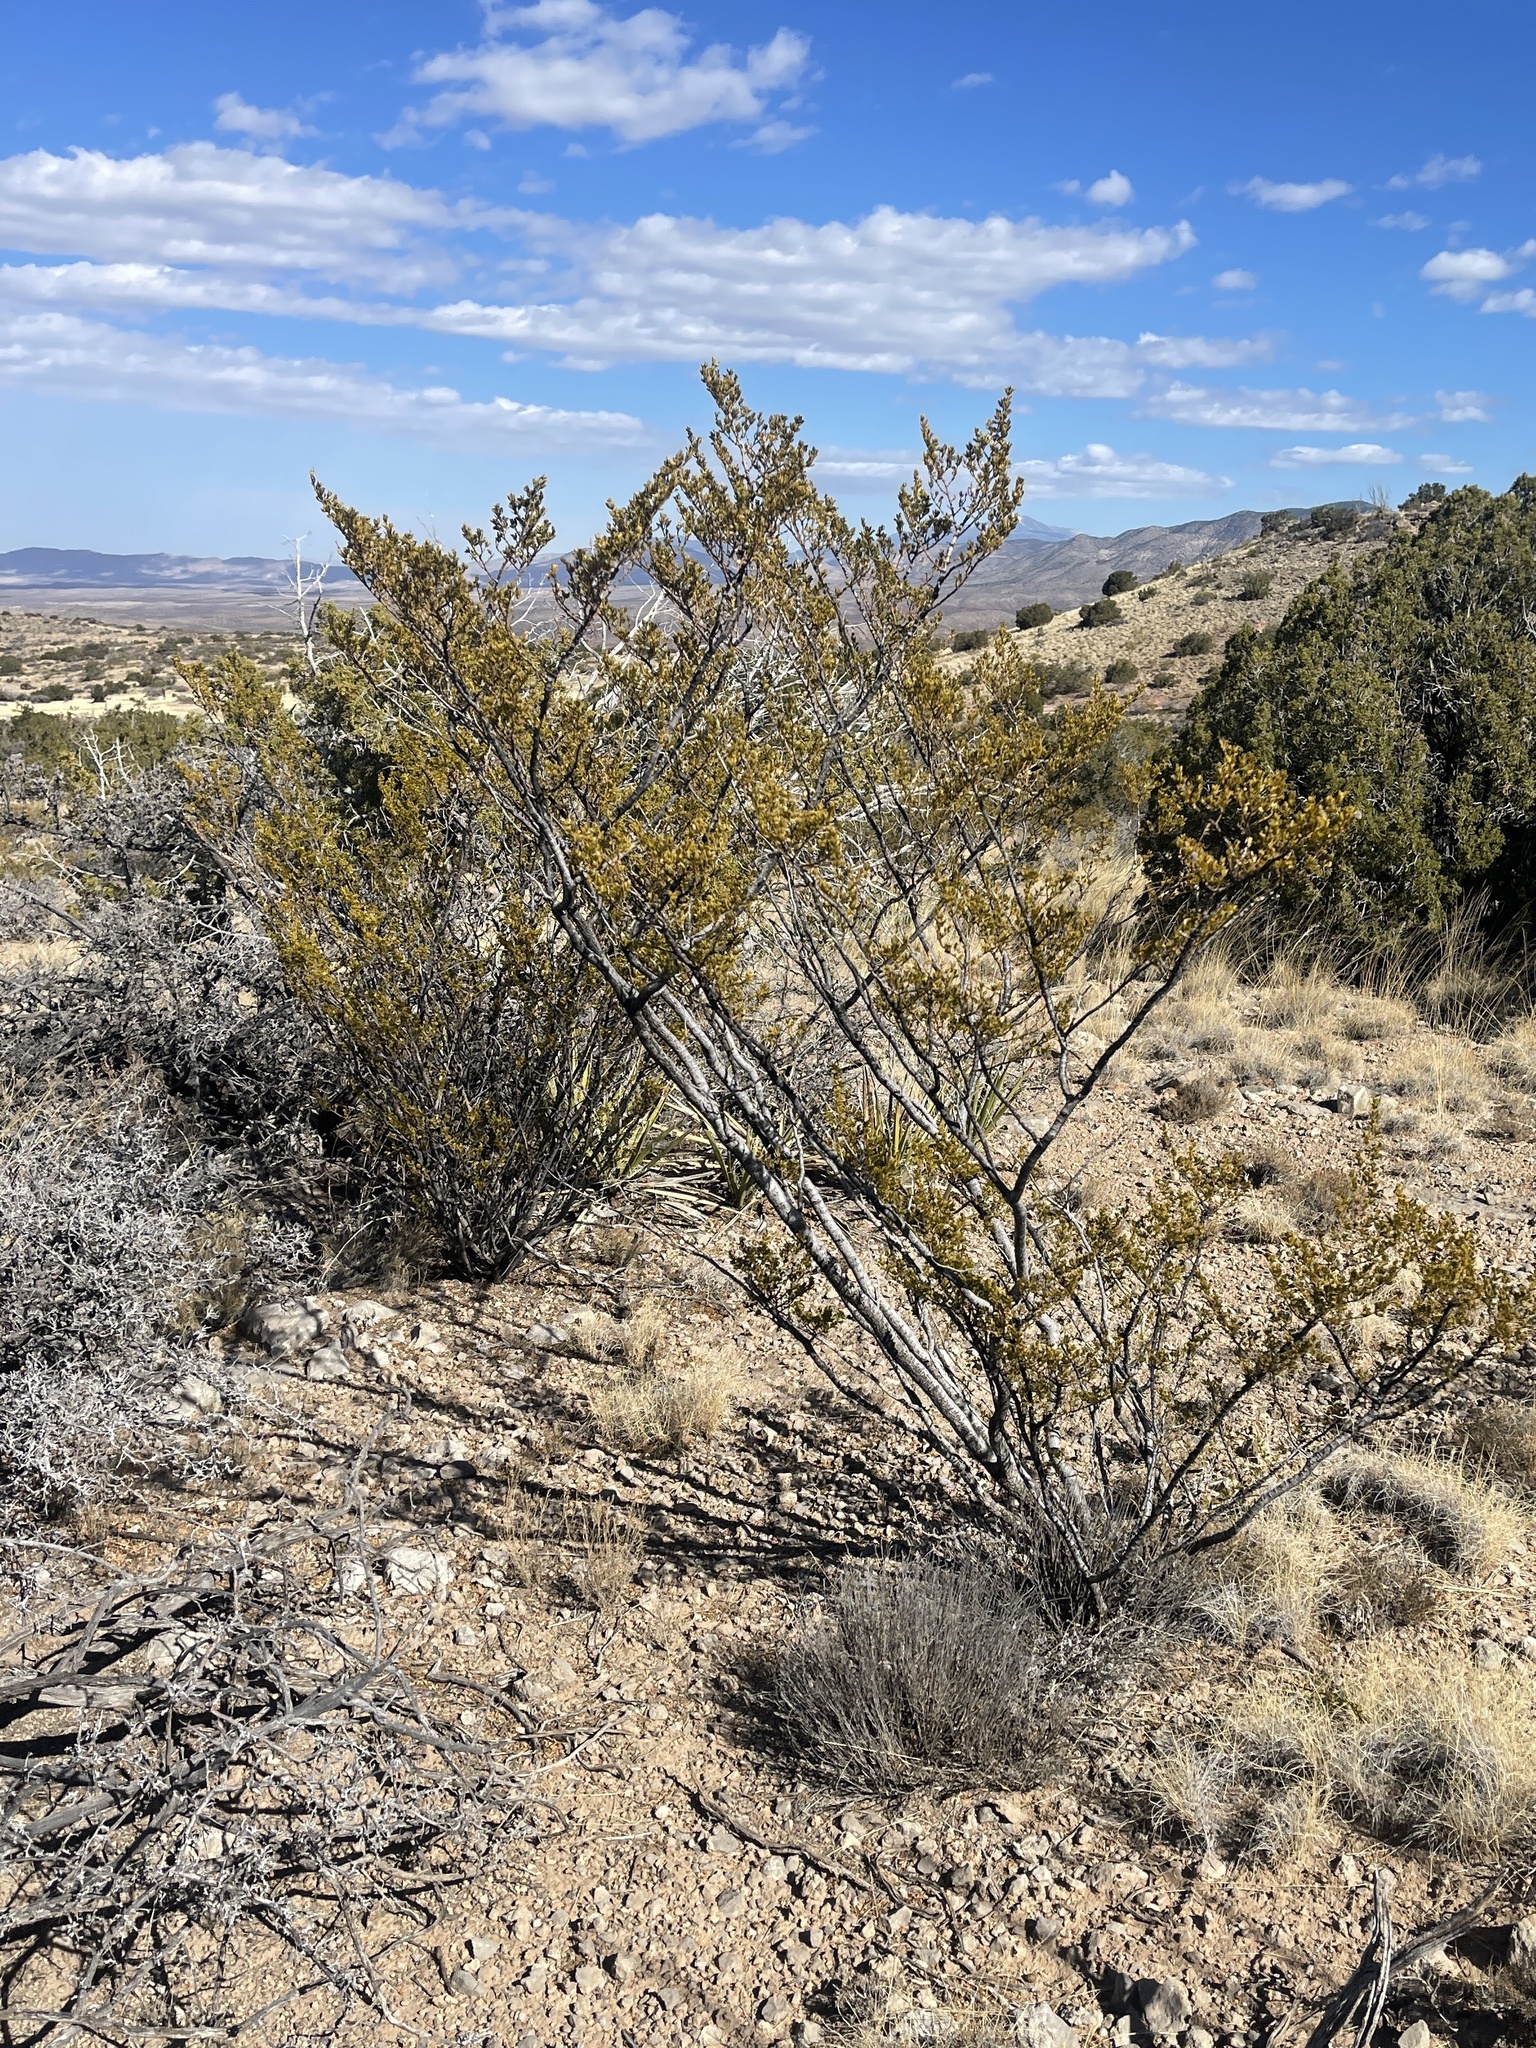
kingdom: Plantae
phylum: Tracheophyta
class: Magnoliopsida
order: Zygophyllales
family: Zygophyllaceae
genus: Larrea
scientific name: Larrea tridentata
